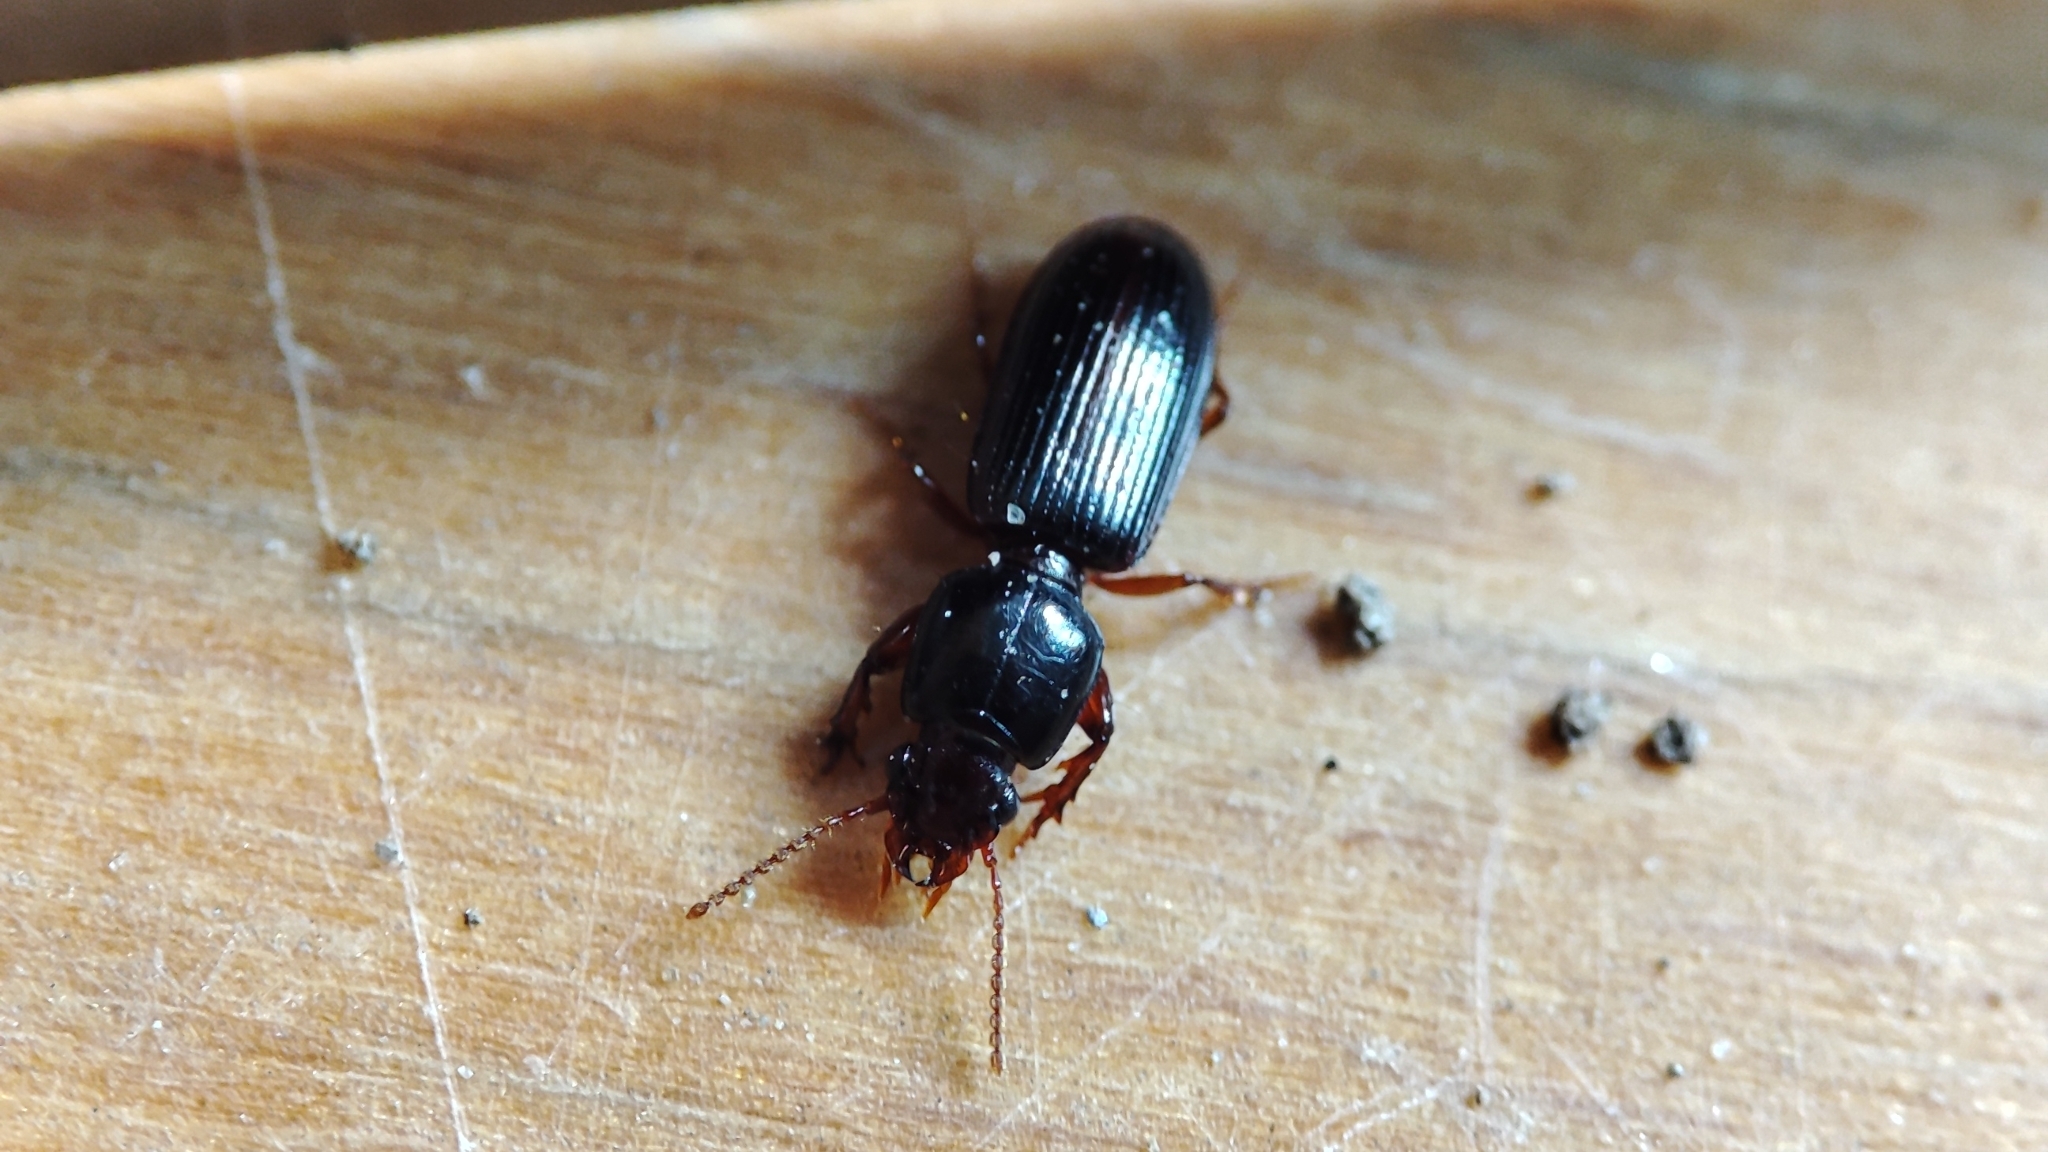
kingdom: Animalia
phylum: Arthropoda
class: Insecta
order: Coleoptera
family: Carabidae
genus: Clivina
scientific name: Clivina fossor
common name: Digging pedunculate ground beetle
